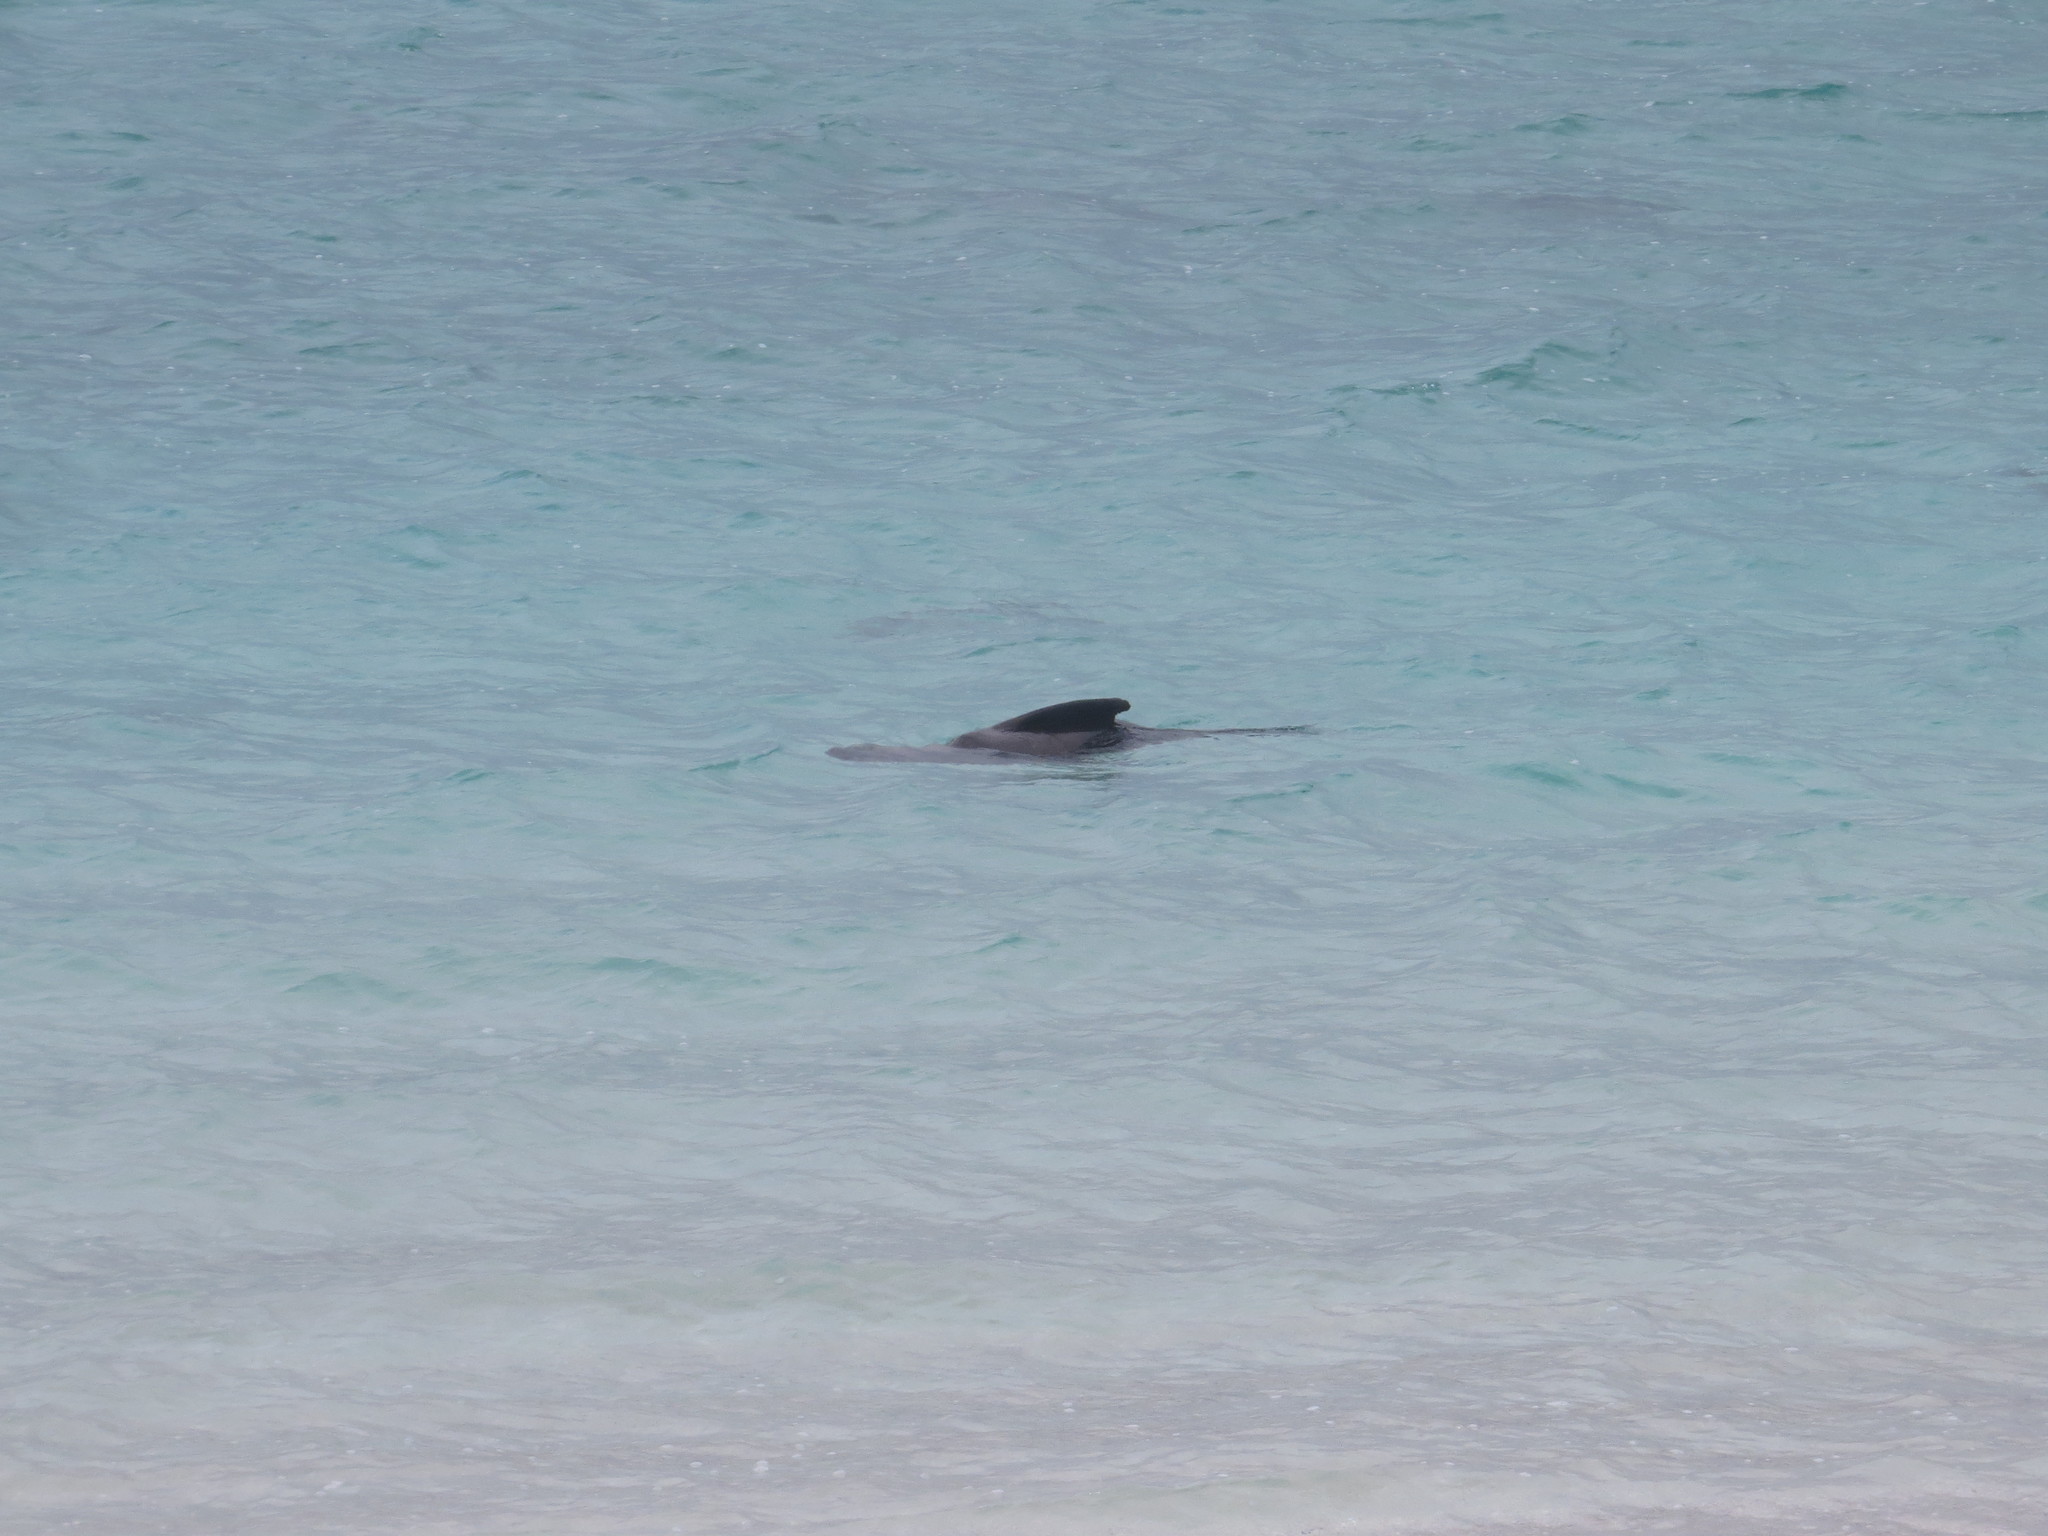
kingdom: Animalia
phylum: Chordata
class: Mammalia
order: Carnivora
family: Otariidae
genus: Zalophus
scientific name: Zalophus wollebaeki
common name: Galapagos sea lion
